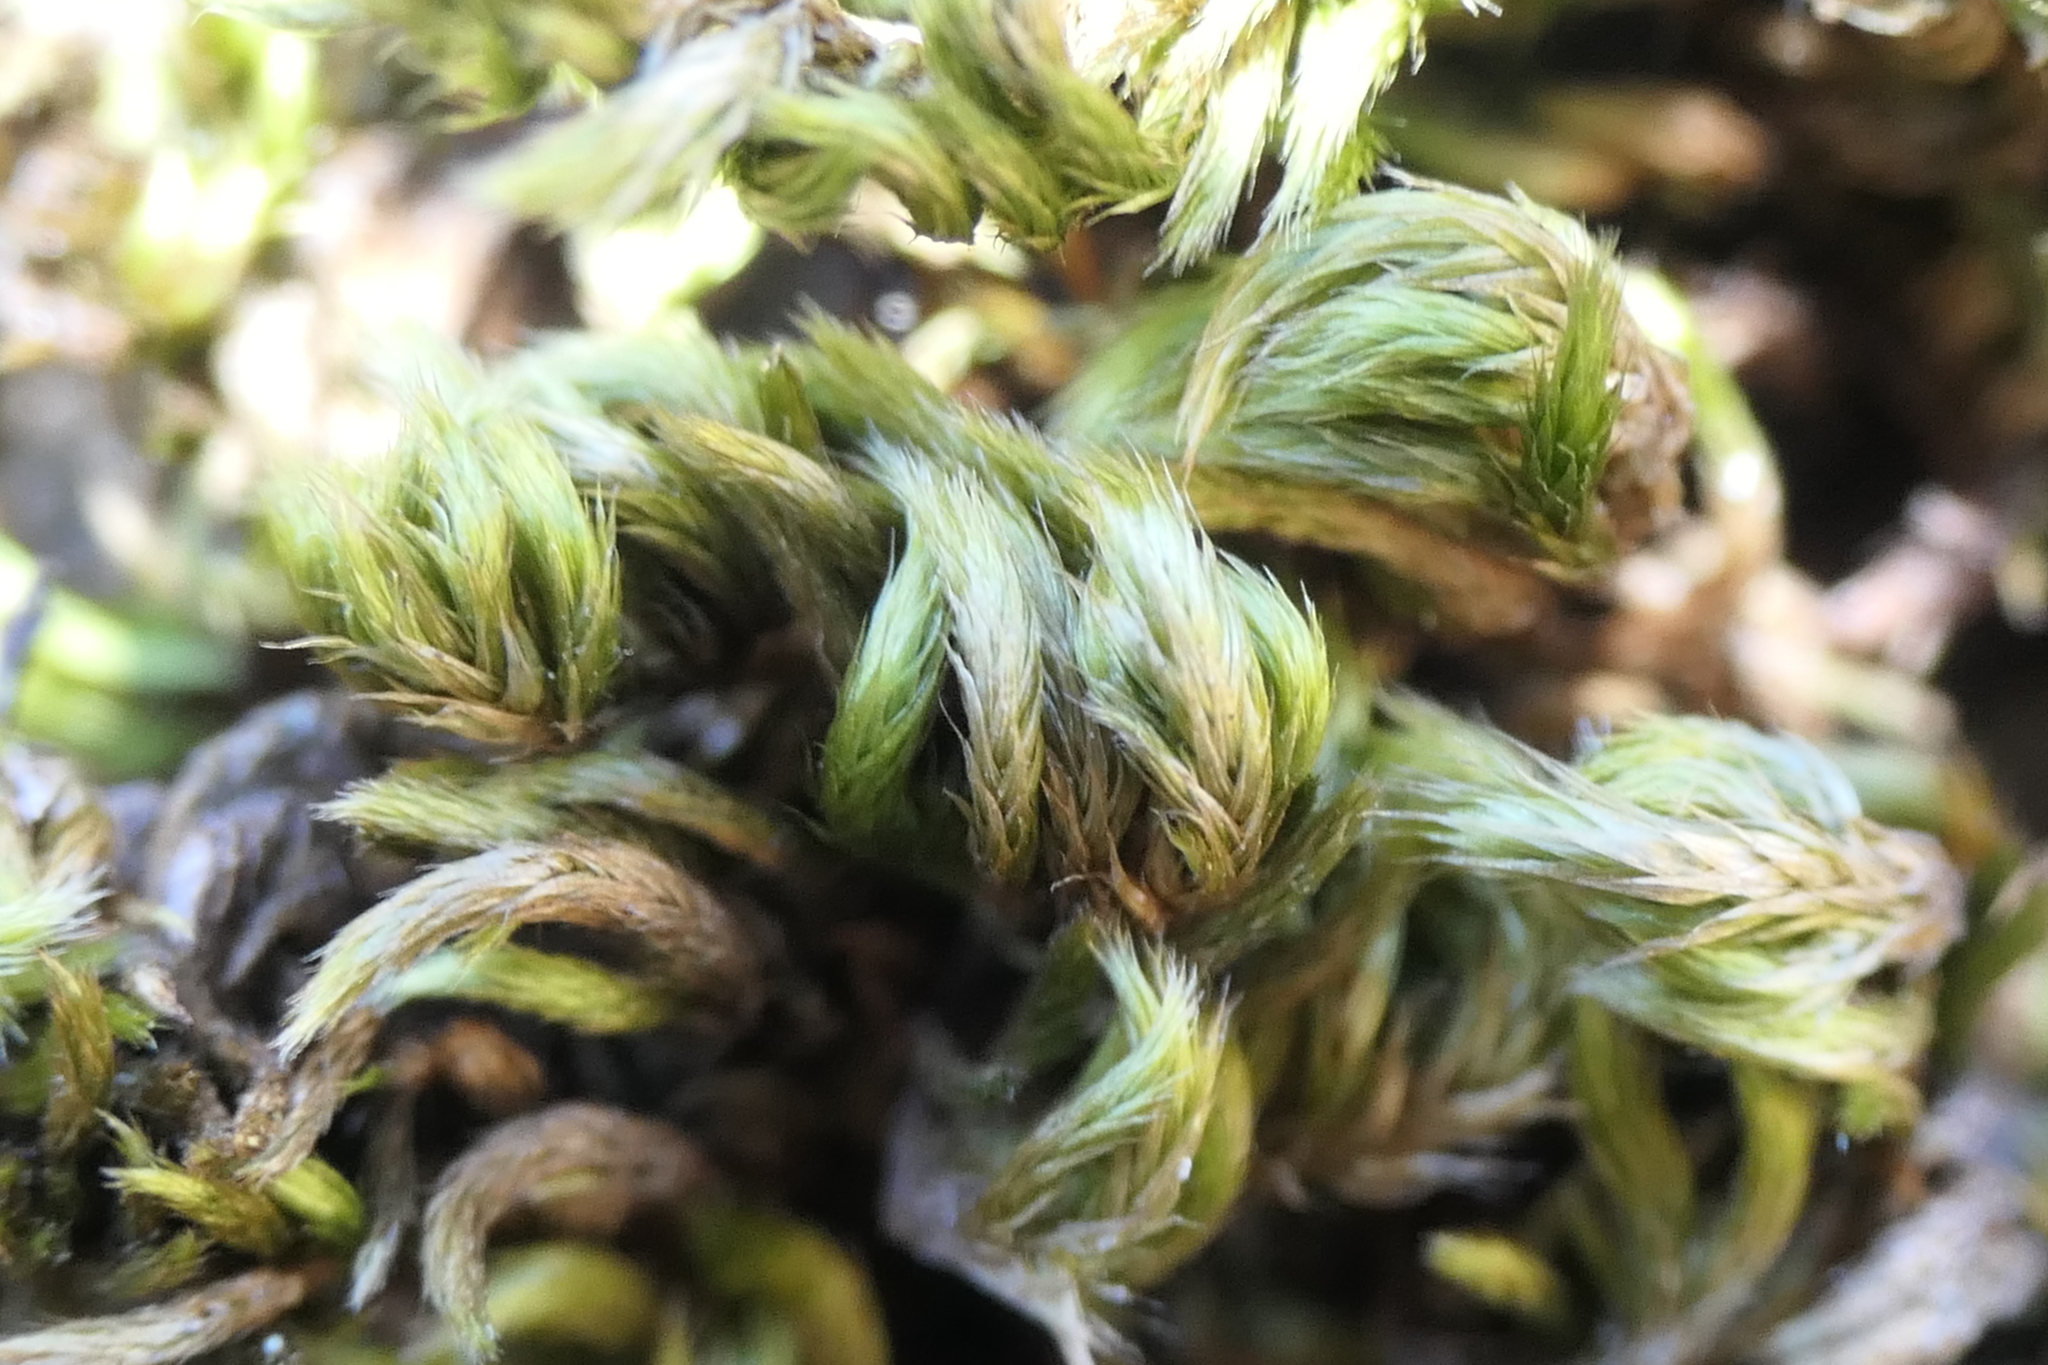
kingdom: Plantae
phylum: Bryophyta
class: Bryopsida
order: Hypnales
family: Brachytheciaceae
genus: Homalothecium
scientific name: Homalothecium sericeum
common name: Silky wall feather-moss
